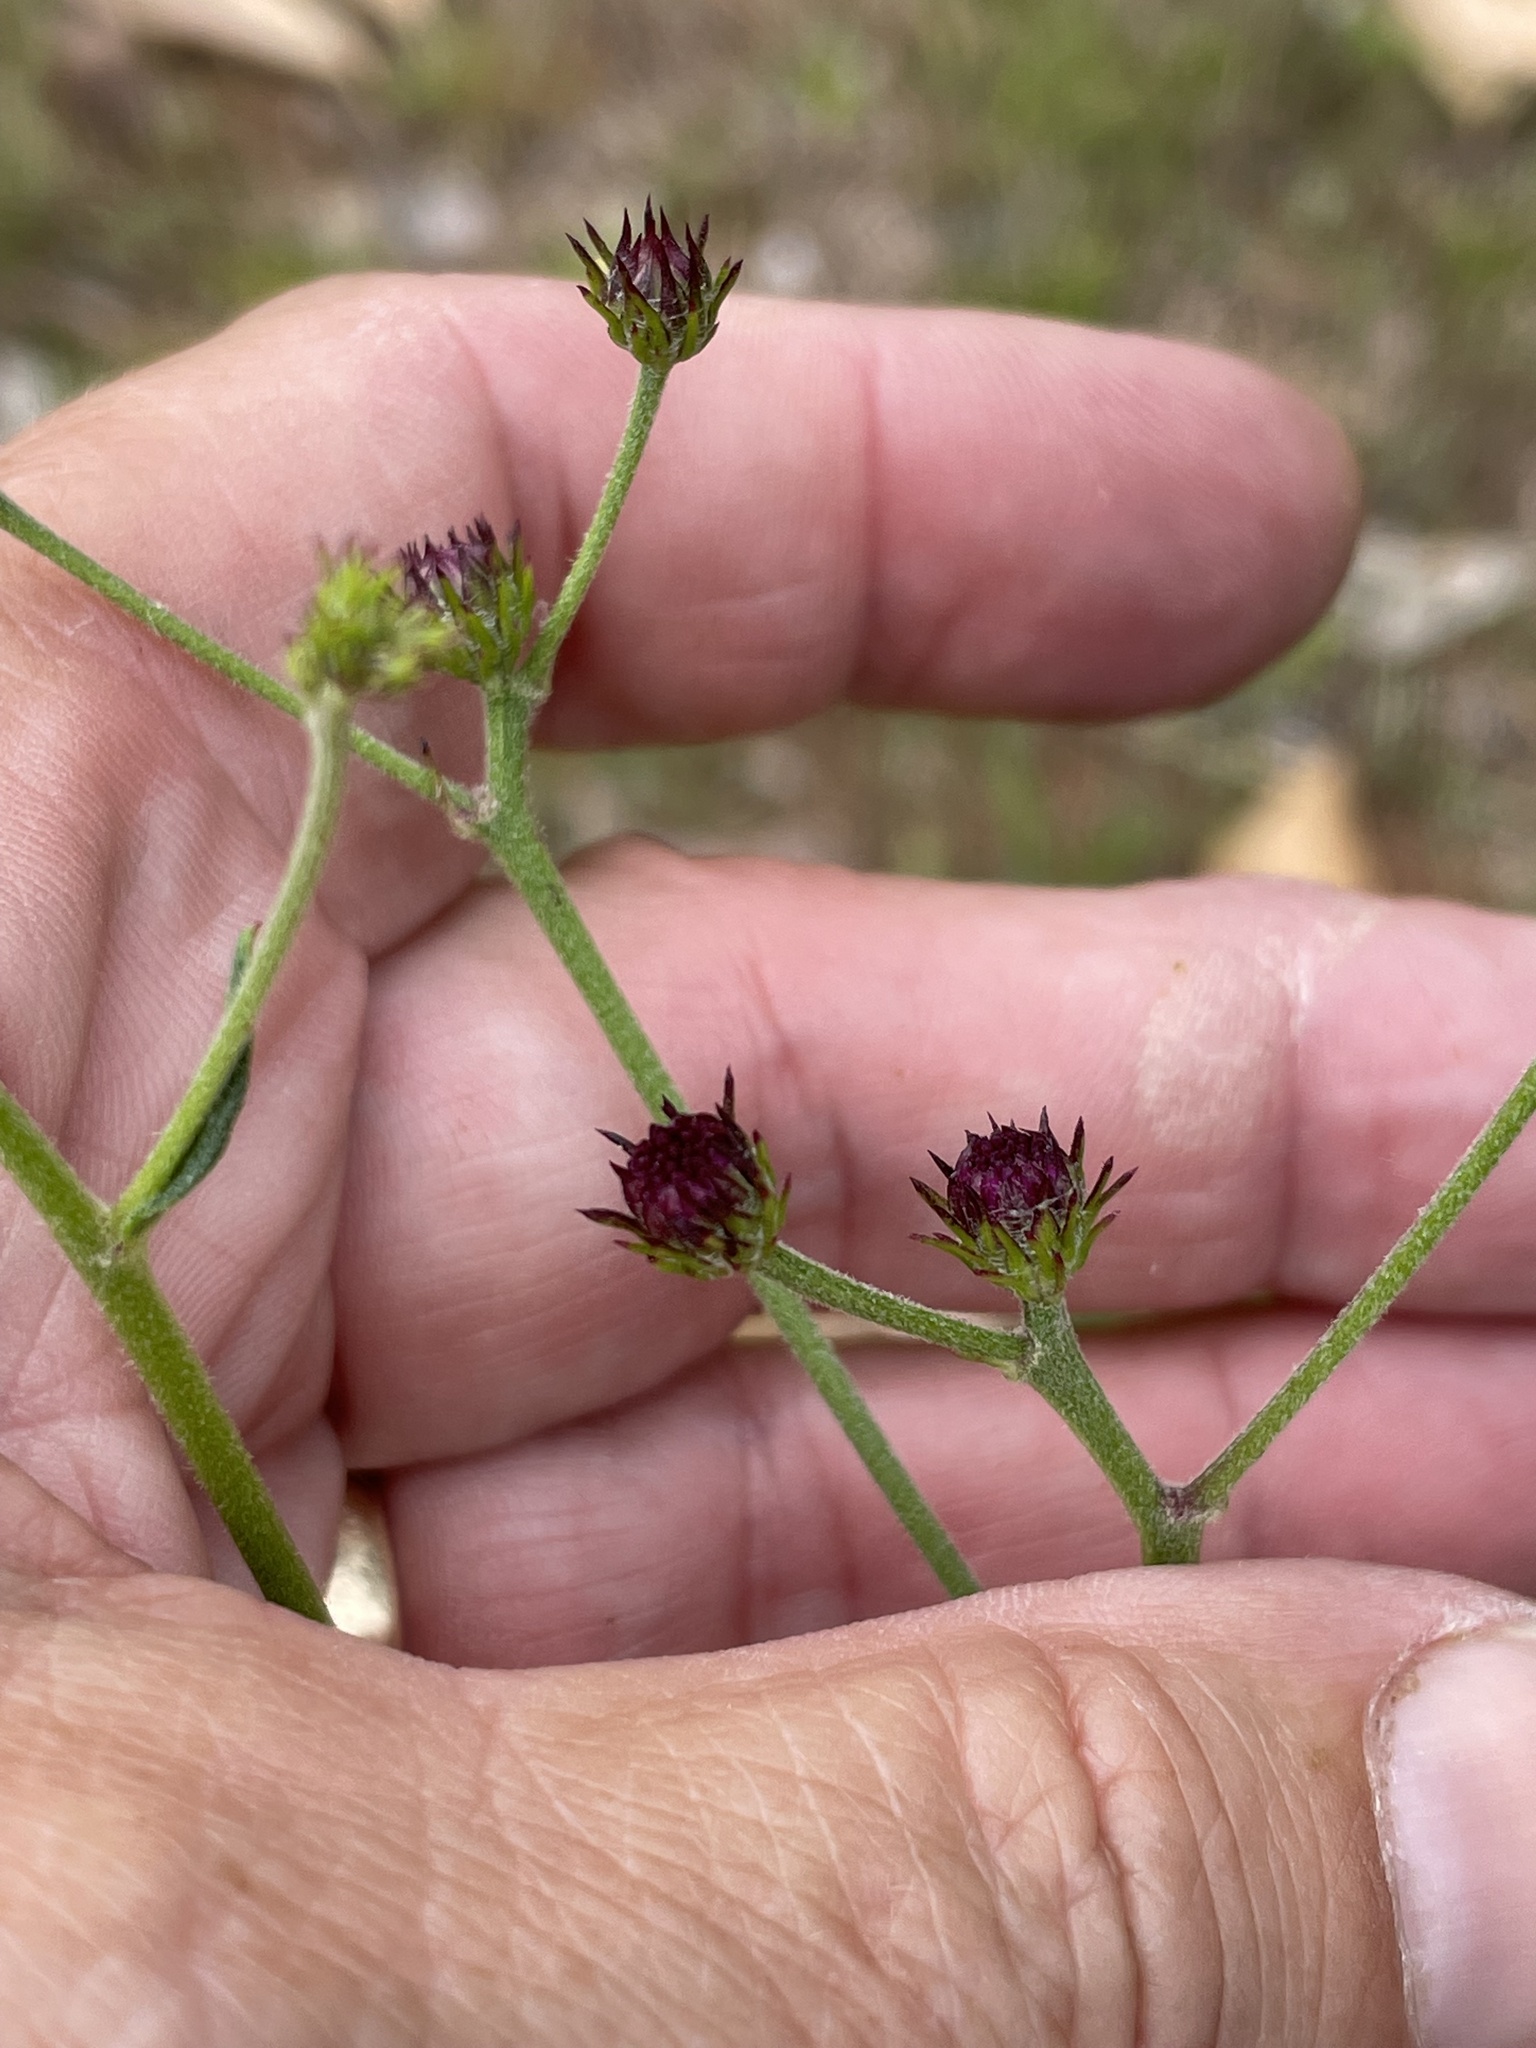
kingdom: Plantae
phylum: Tracheophyta
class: Magnoliopsida
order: Asterales
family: Asteraceae
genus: Vernonia
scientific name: Vernonia acaulis
